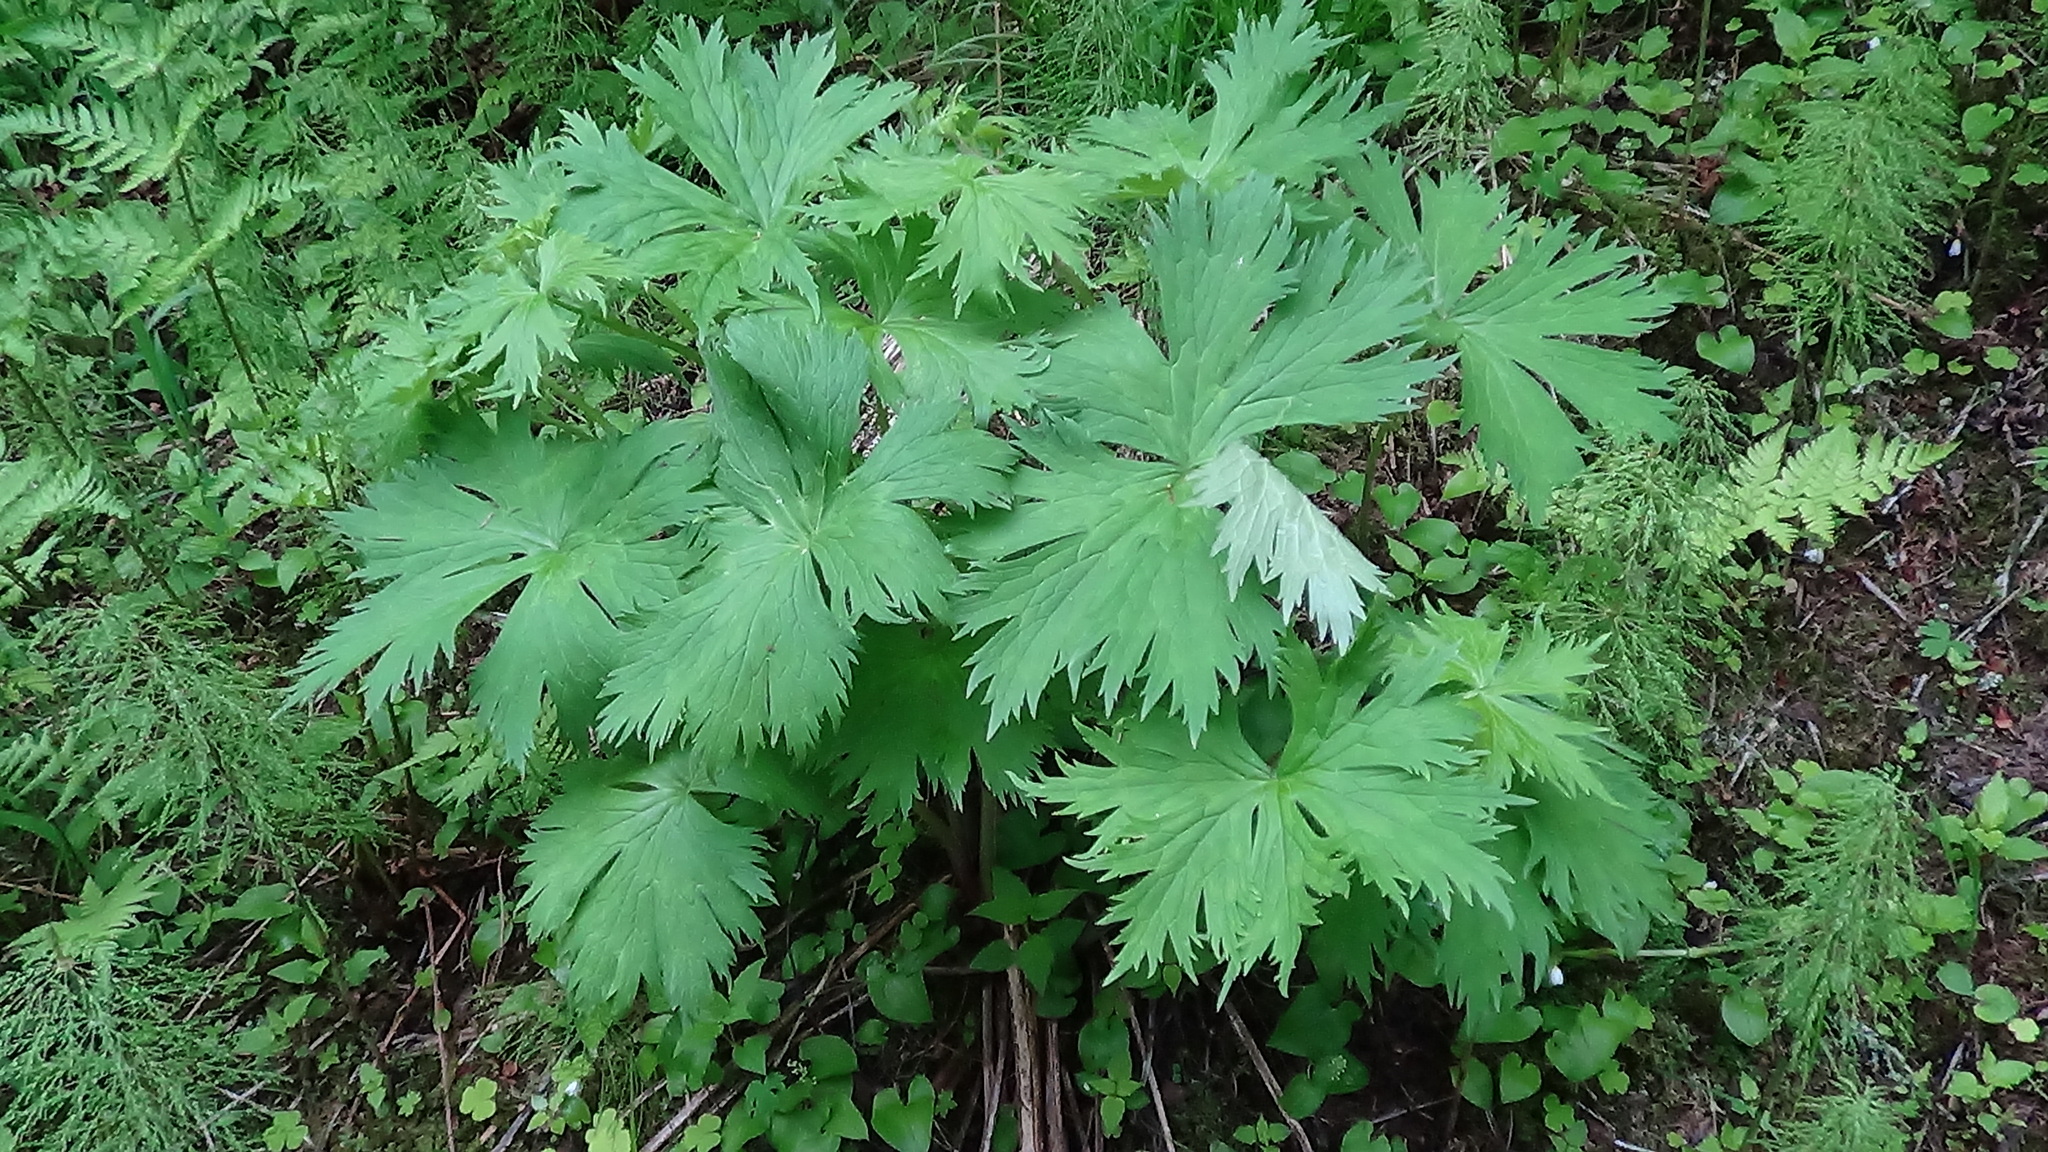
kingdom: Plantae
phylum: Tracheophyta
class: Magnoliopsida
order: Ranunculales
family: Ranunculaceae
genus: Aconitum
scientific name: Aconitum septentrionale
